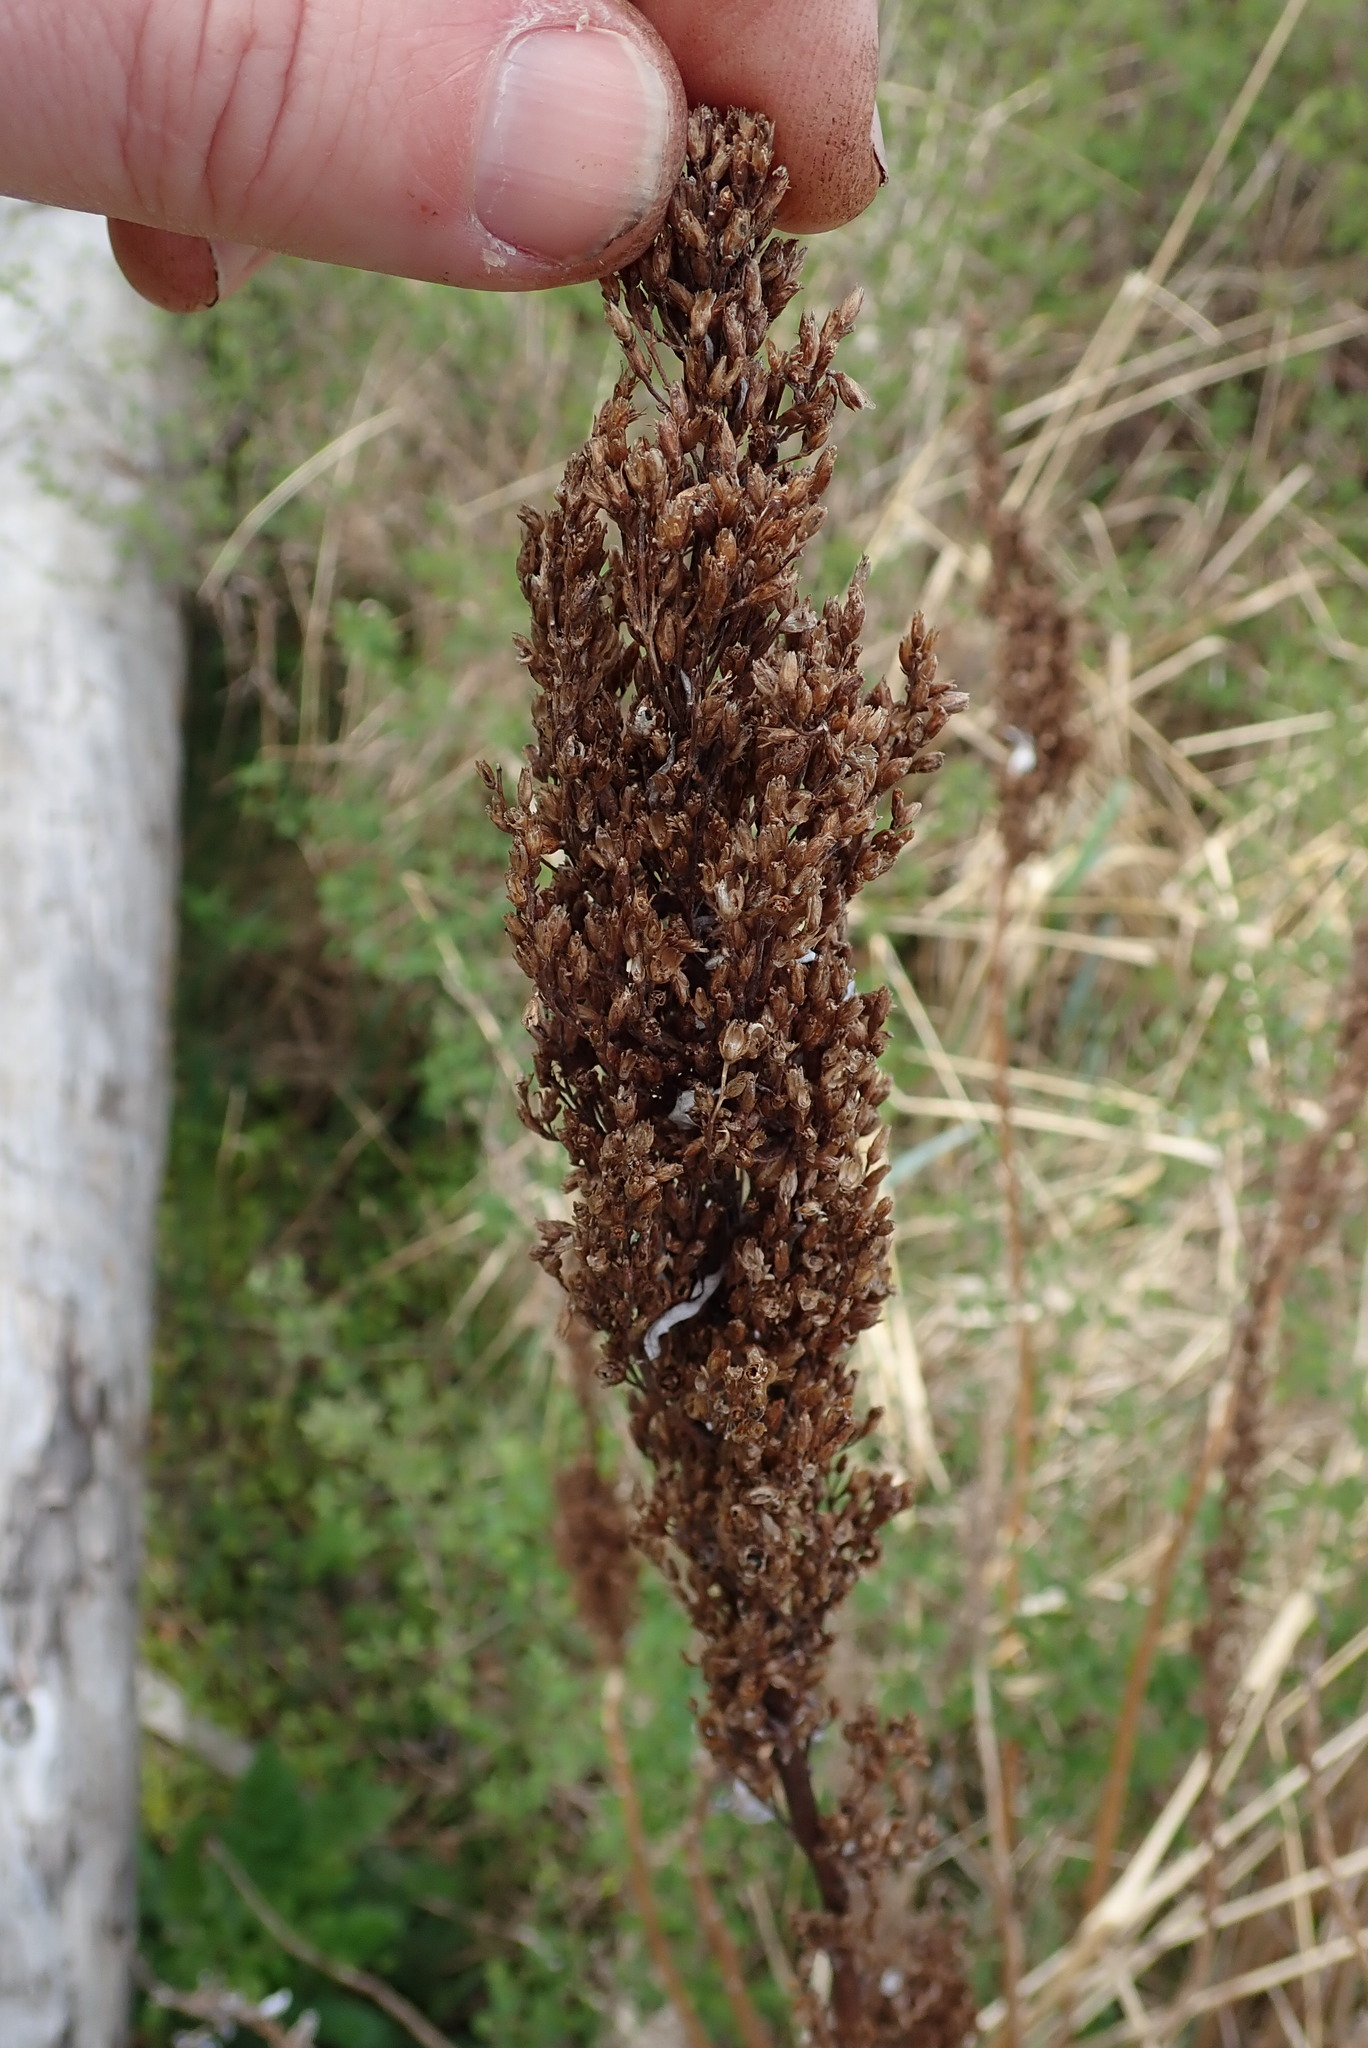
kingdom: Plantae
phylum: Tracheophyta
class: Magnoliopsida
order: Asterales
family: Asteraceae
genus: Artemisia
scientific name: Artemisia suksdorfii
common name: Suksdorf sagewort
